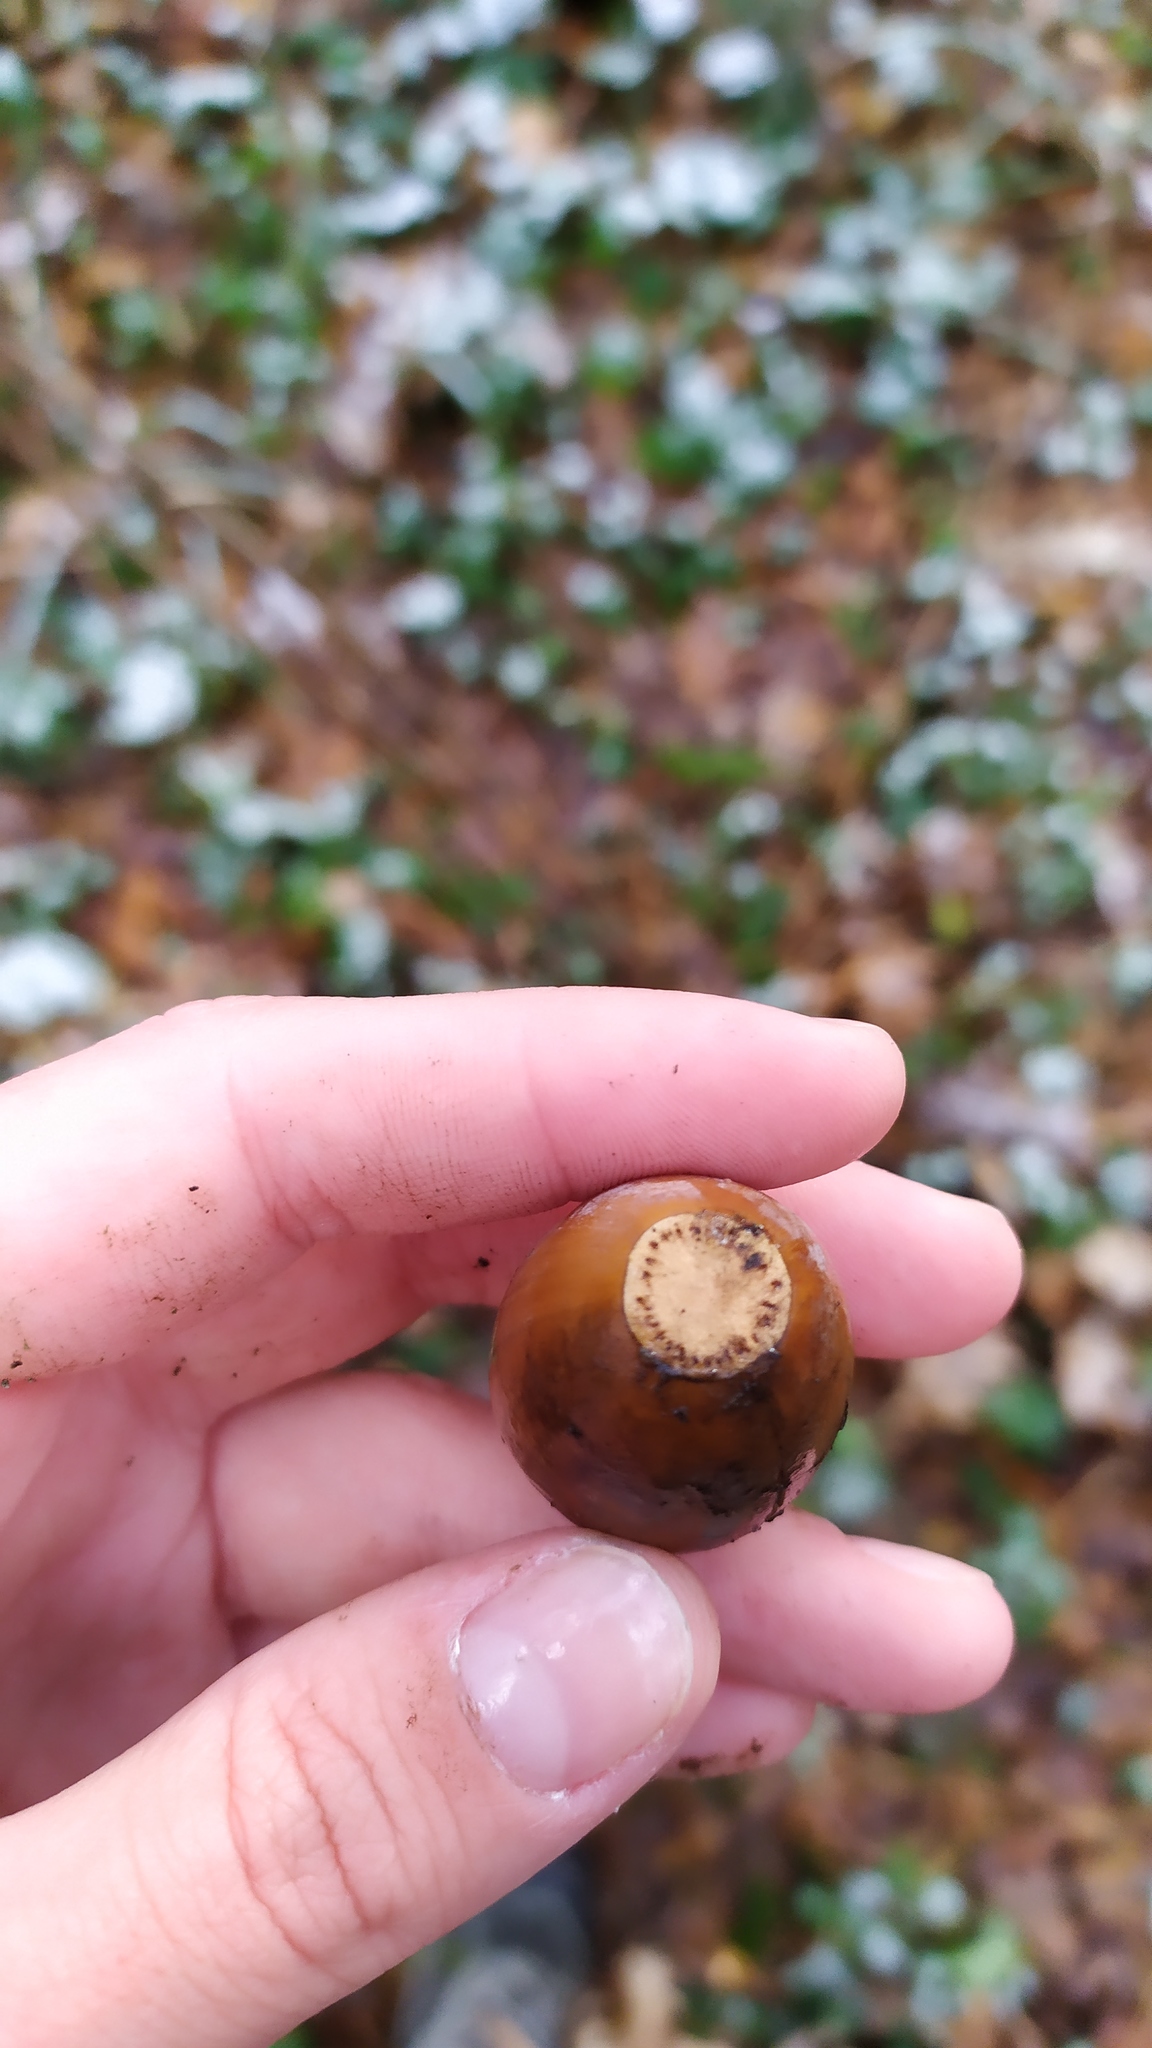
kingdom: Plantae
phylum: Tracheophyta
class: Magnoliopsida
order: Fagales
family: Fagaceae
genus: Quercus
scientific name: Quercus robur
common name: Pedunculate oak
